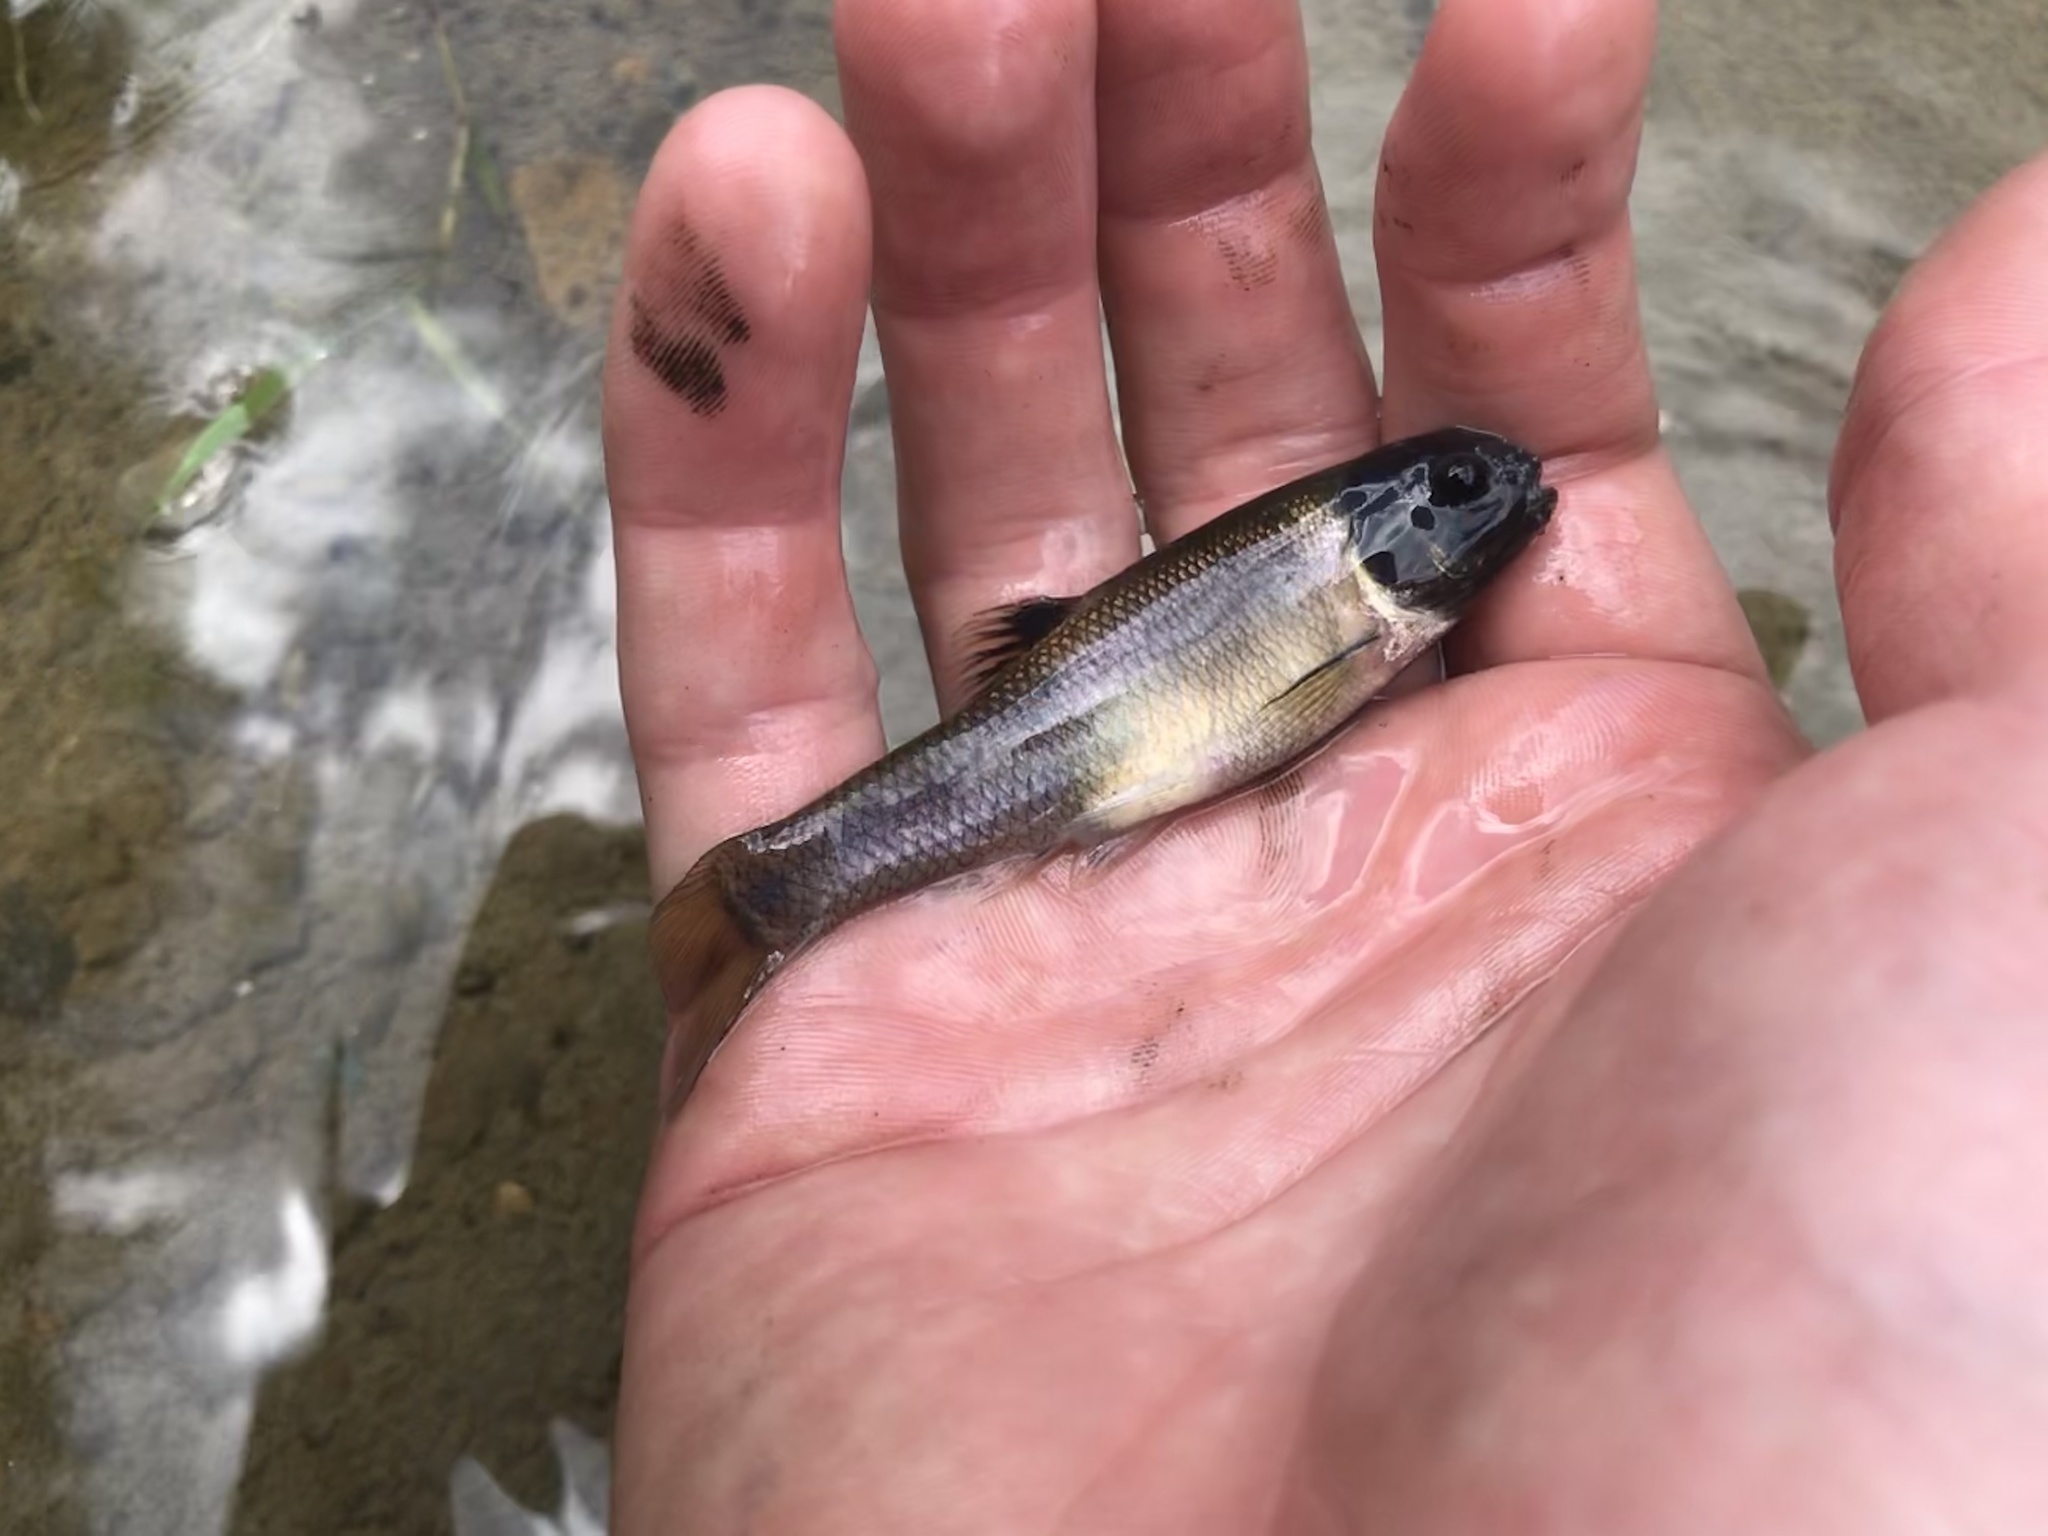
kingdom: Animalia
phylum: Chordata
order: Cypriniformes
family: Cyprinidae
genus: Pimephales
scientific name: Pimephales promelas
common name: Fathead minnow
